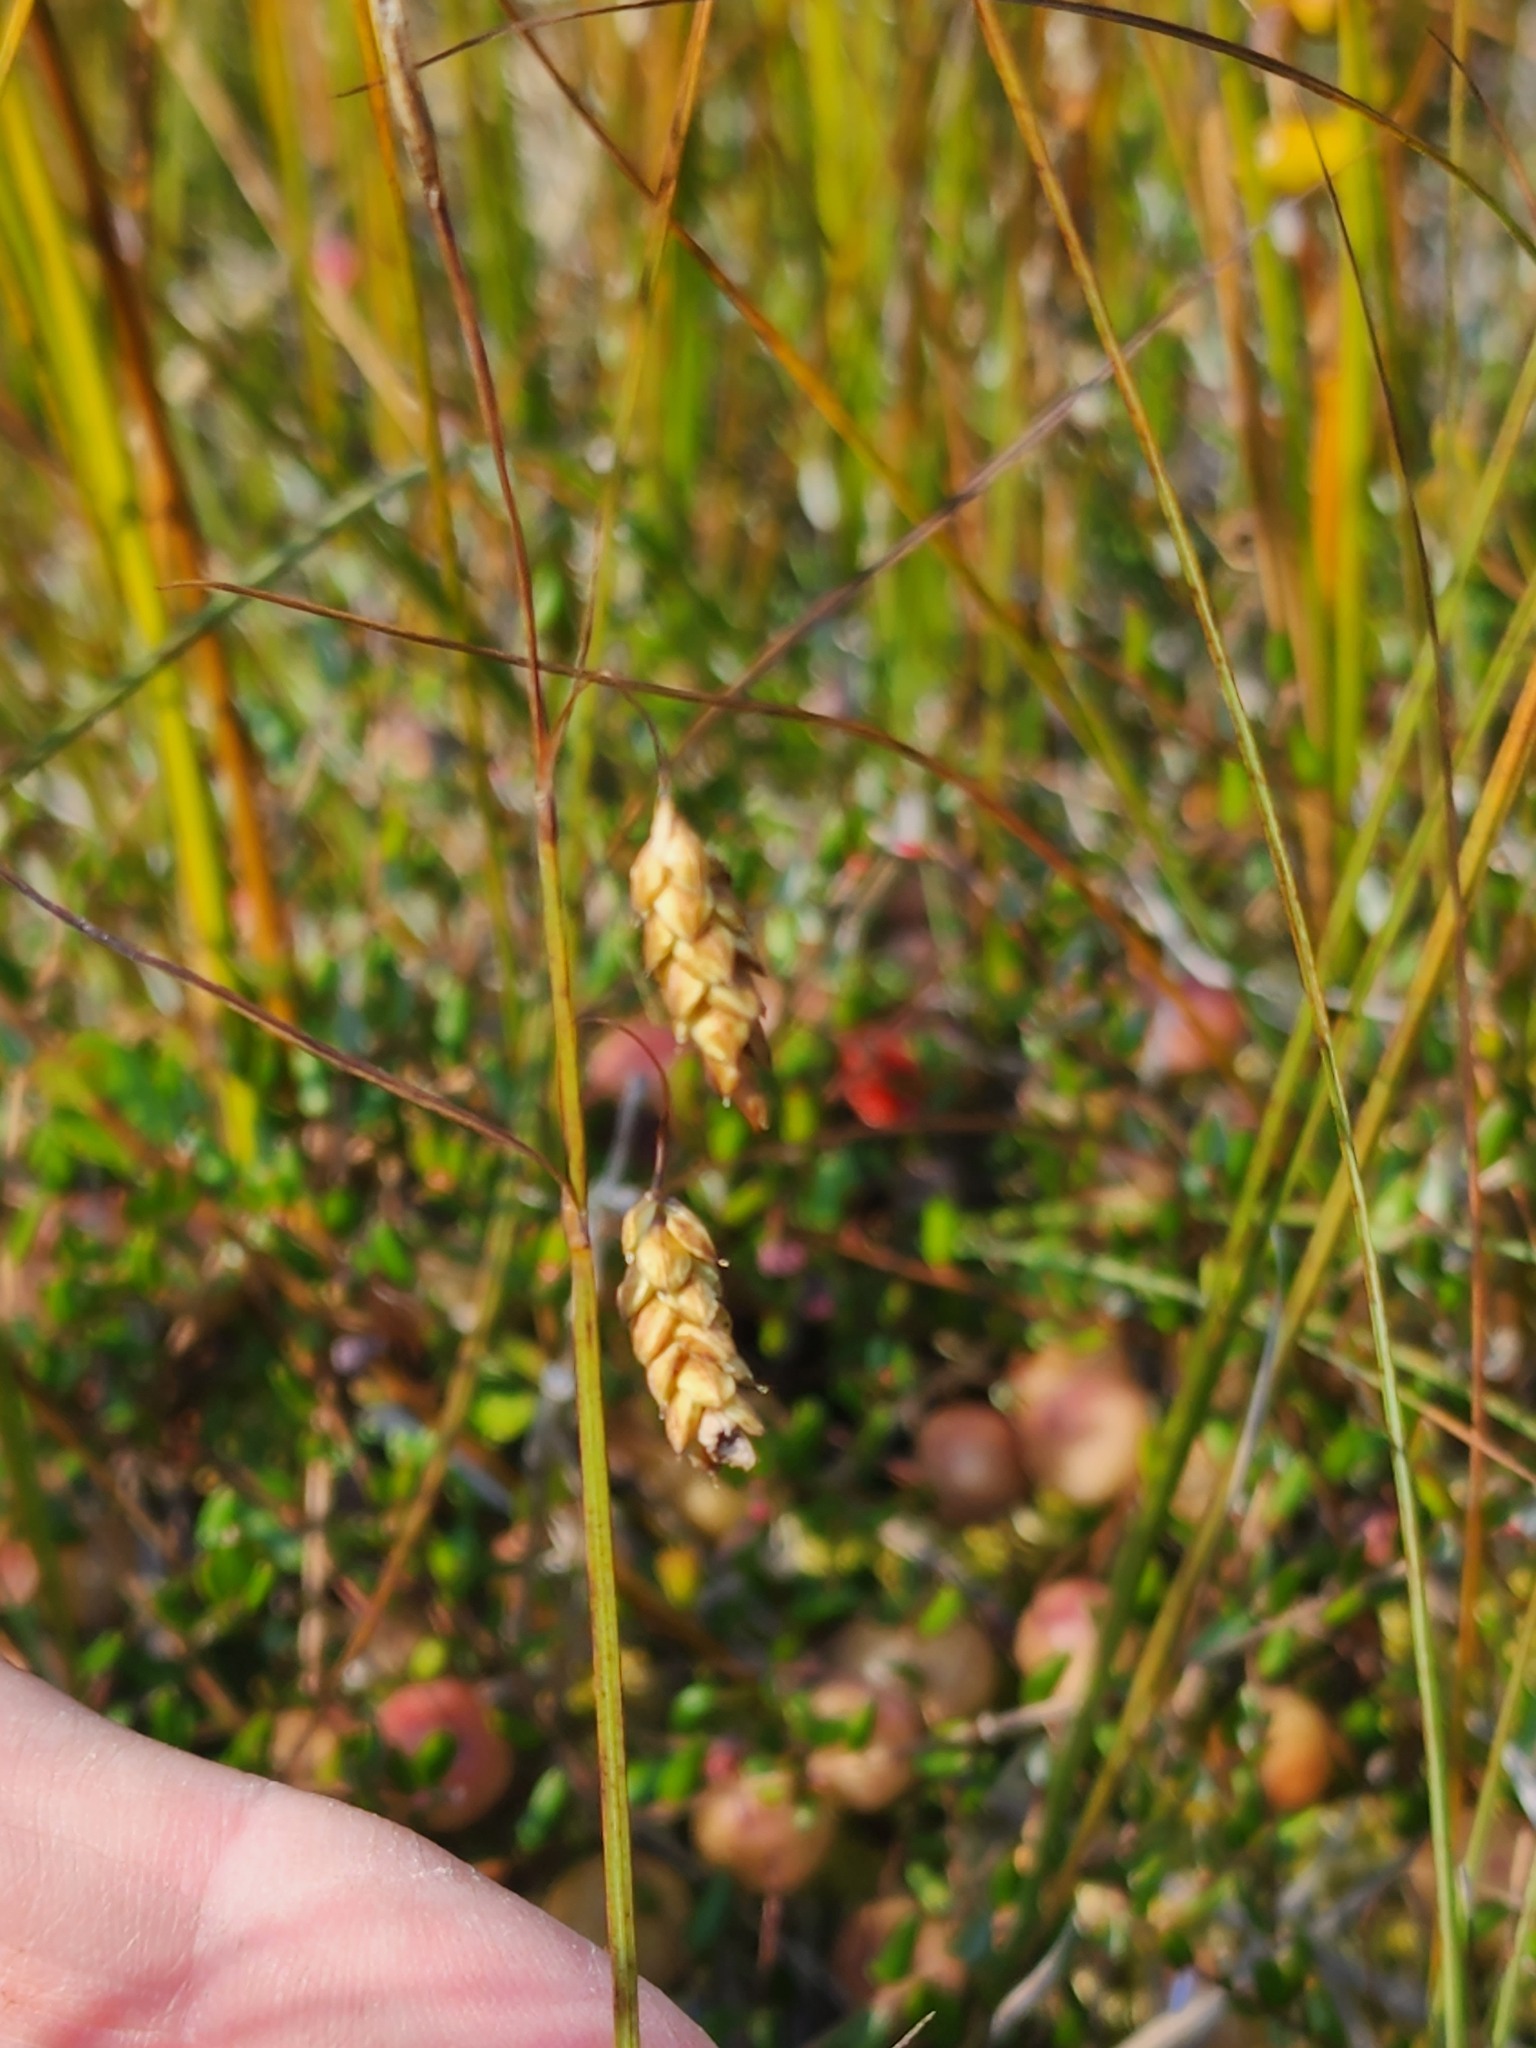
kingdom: Plantae
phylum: Tracheophyta
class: Liliopsida
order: Poales
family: Cyperaceae
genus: Carex
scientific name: Carex limosa
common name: Bog sedge
